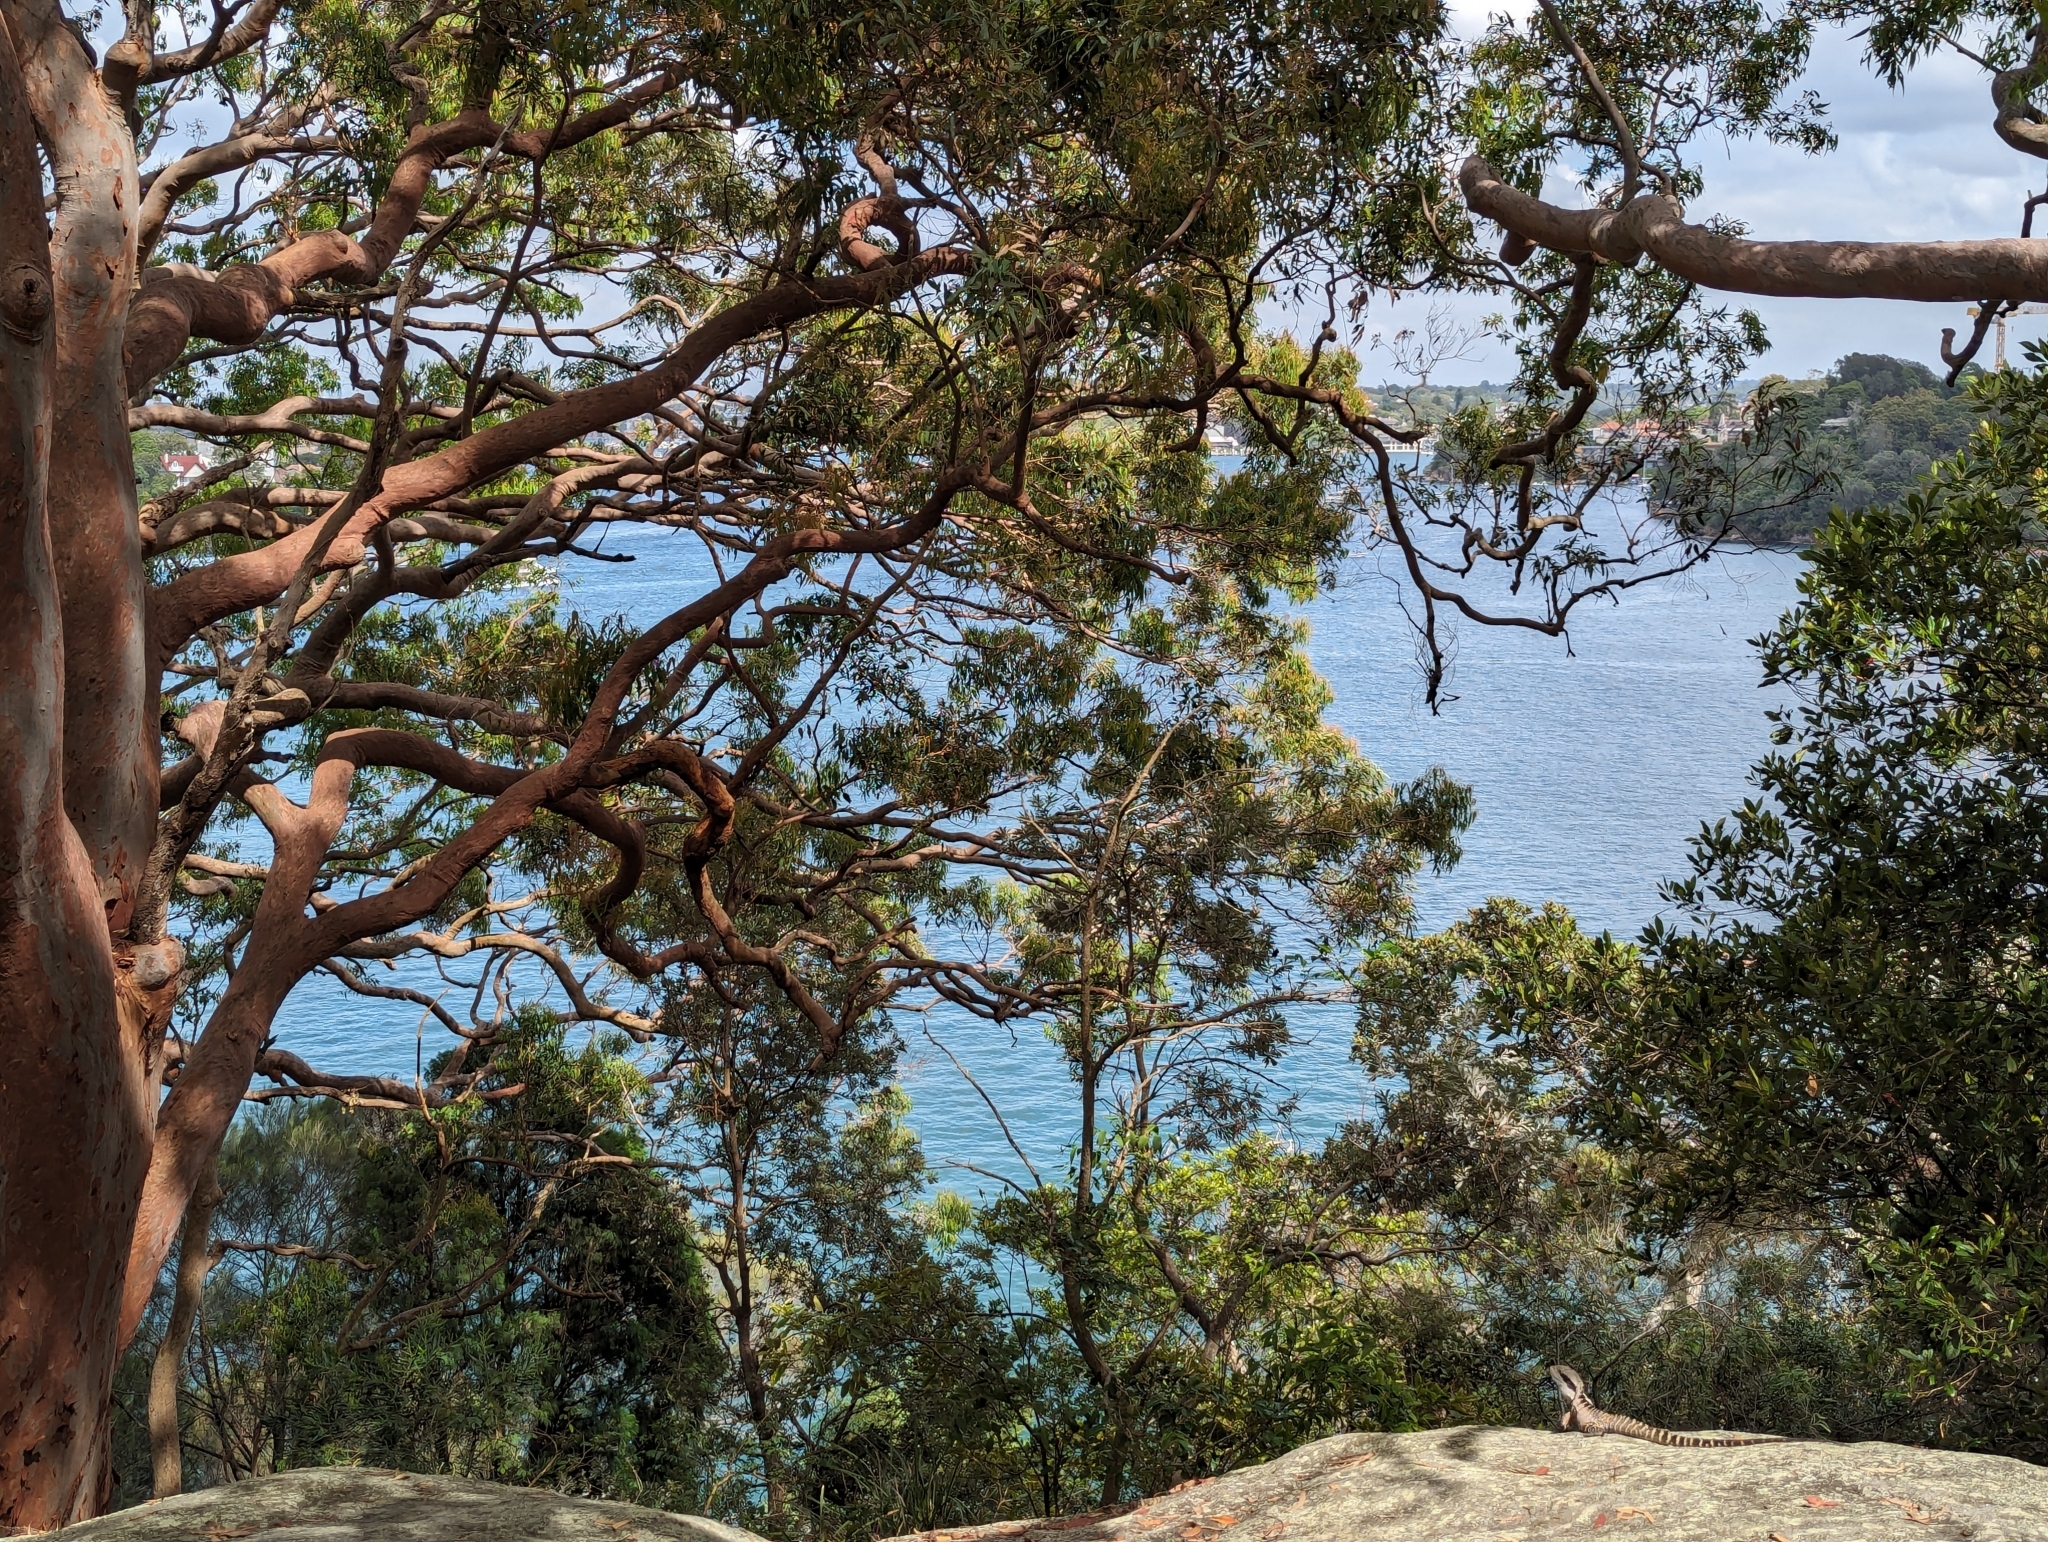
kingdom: Animalia
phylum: Chordata
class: Squamata
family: Agamidae
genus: Intellagama
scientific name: Intellagama lesueurii
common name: Eastern water dragon
